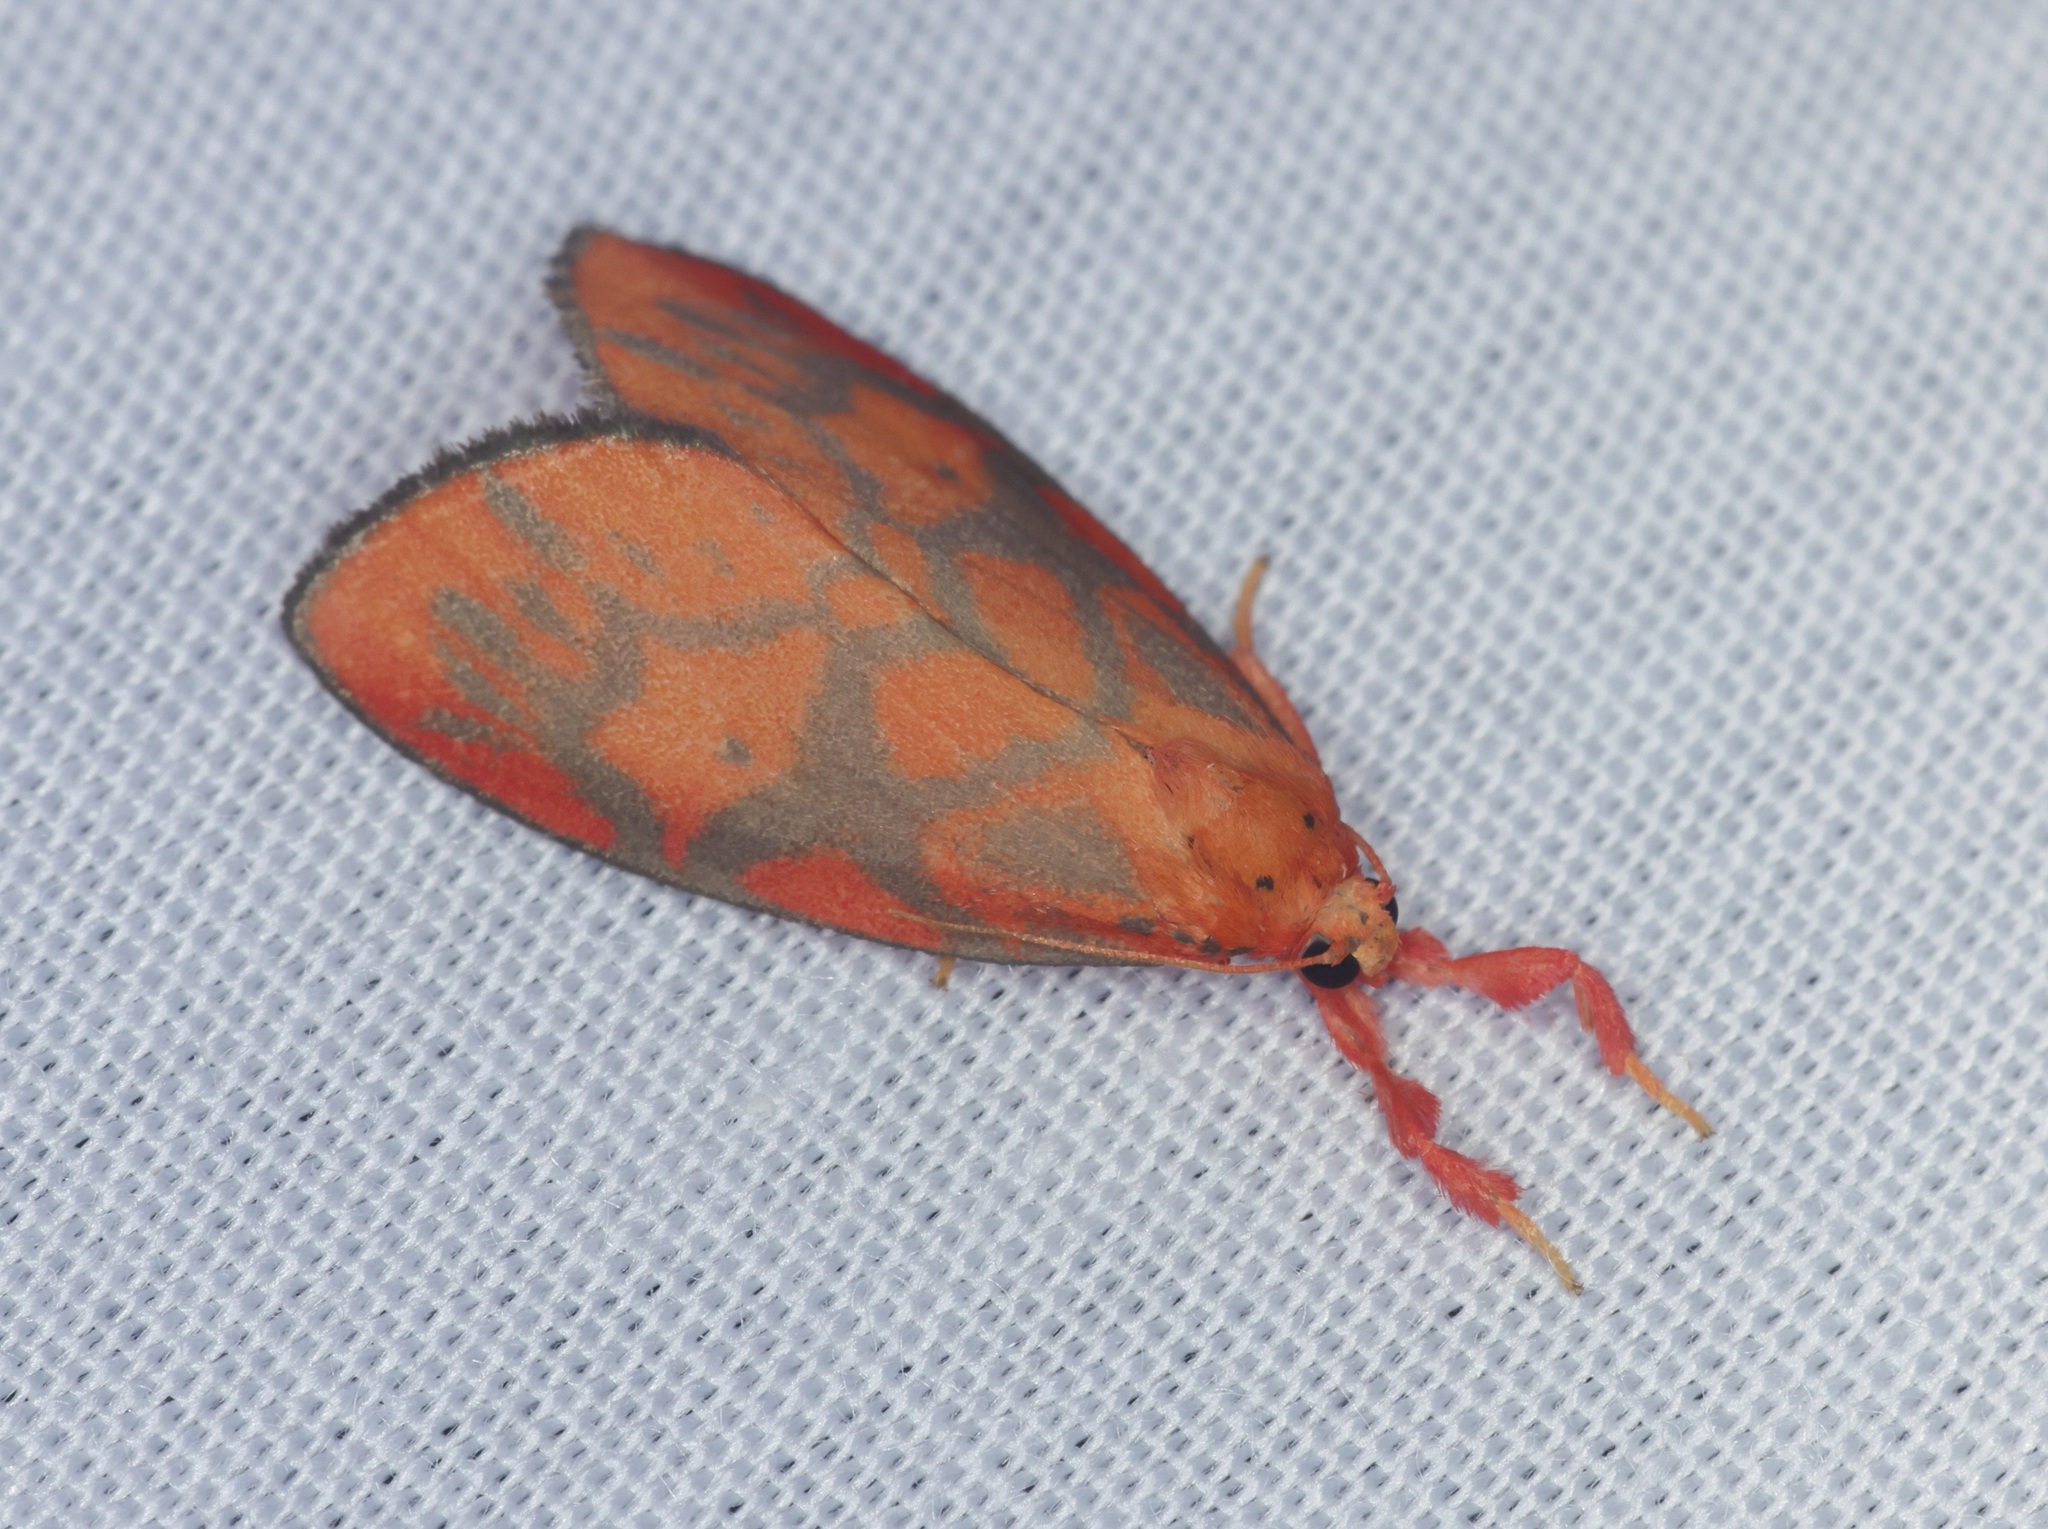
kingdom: Animalia
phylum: Arthropoda
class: Insecta
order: Lepidoptera
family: Erebidae
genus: Cornicornuta
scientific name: Cornicornuta convexa
